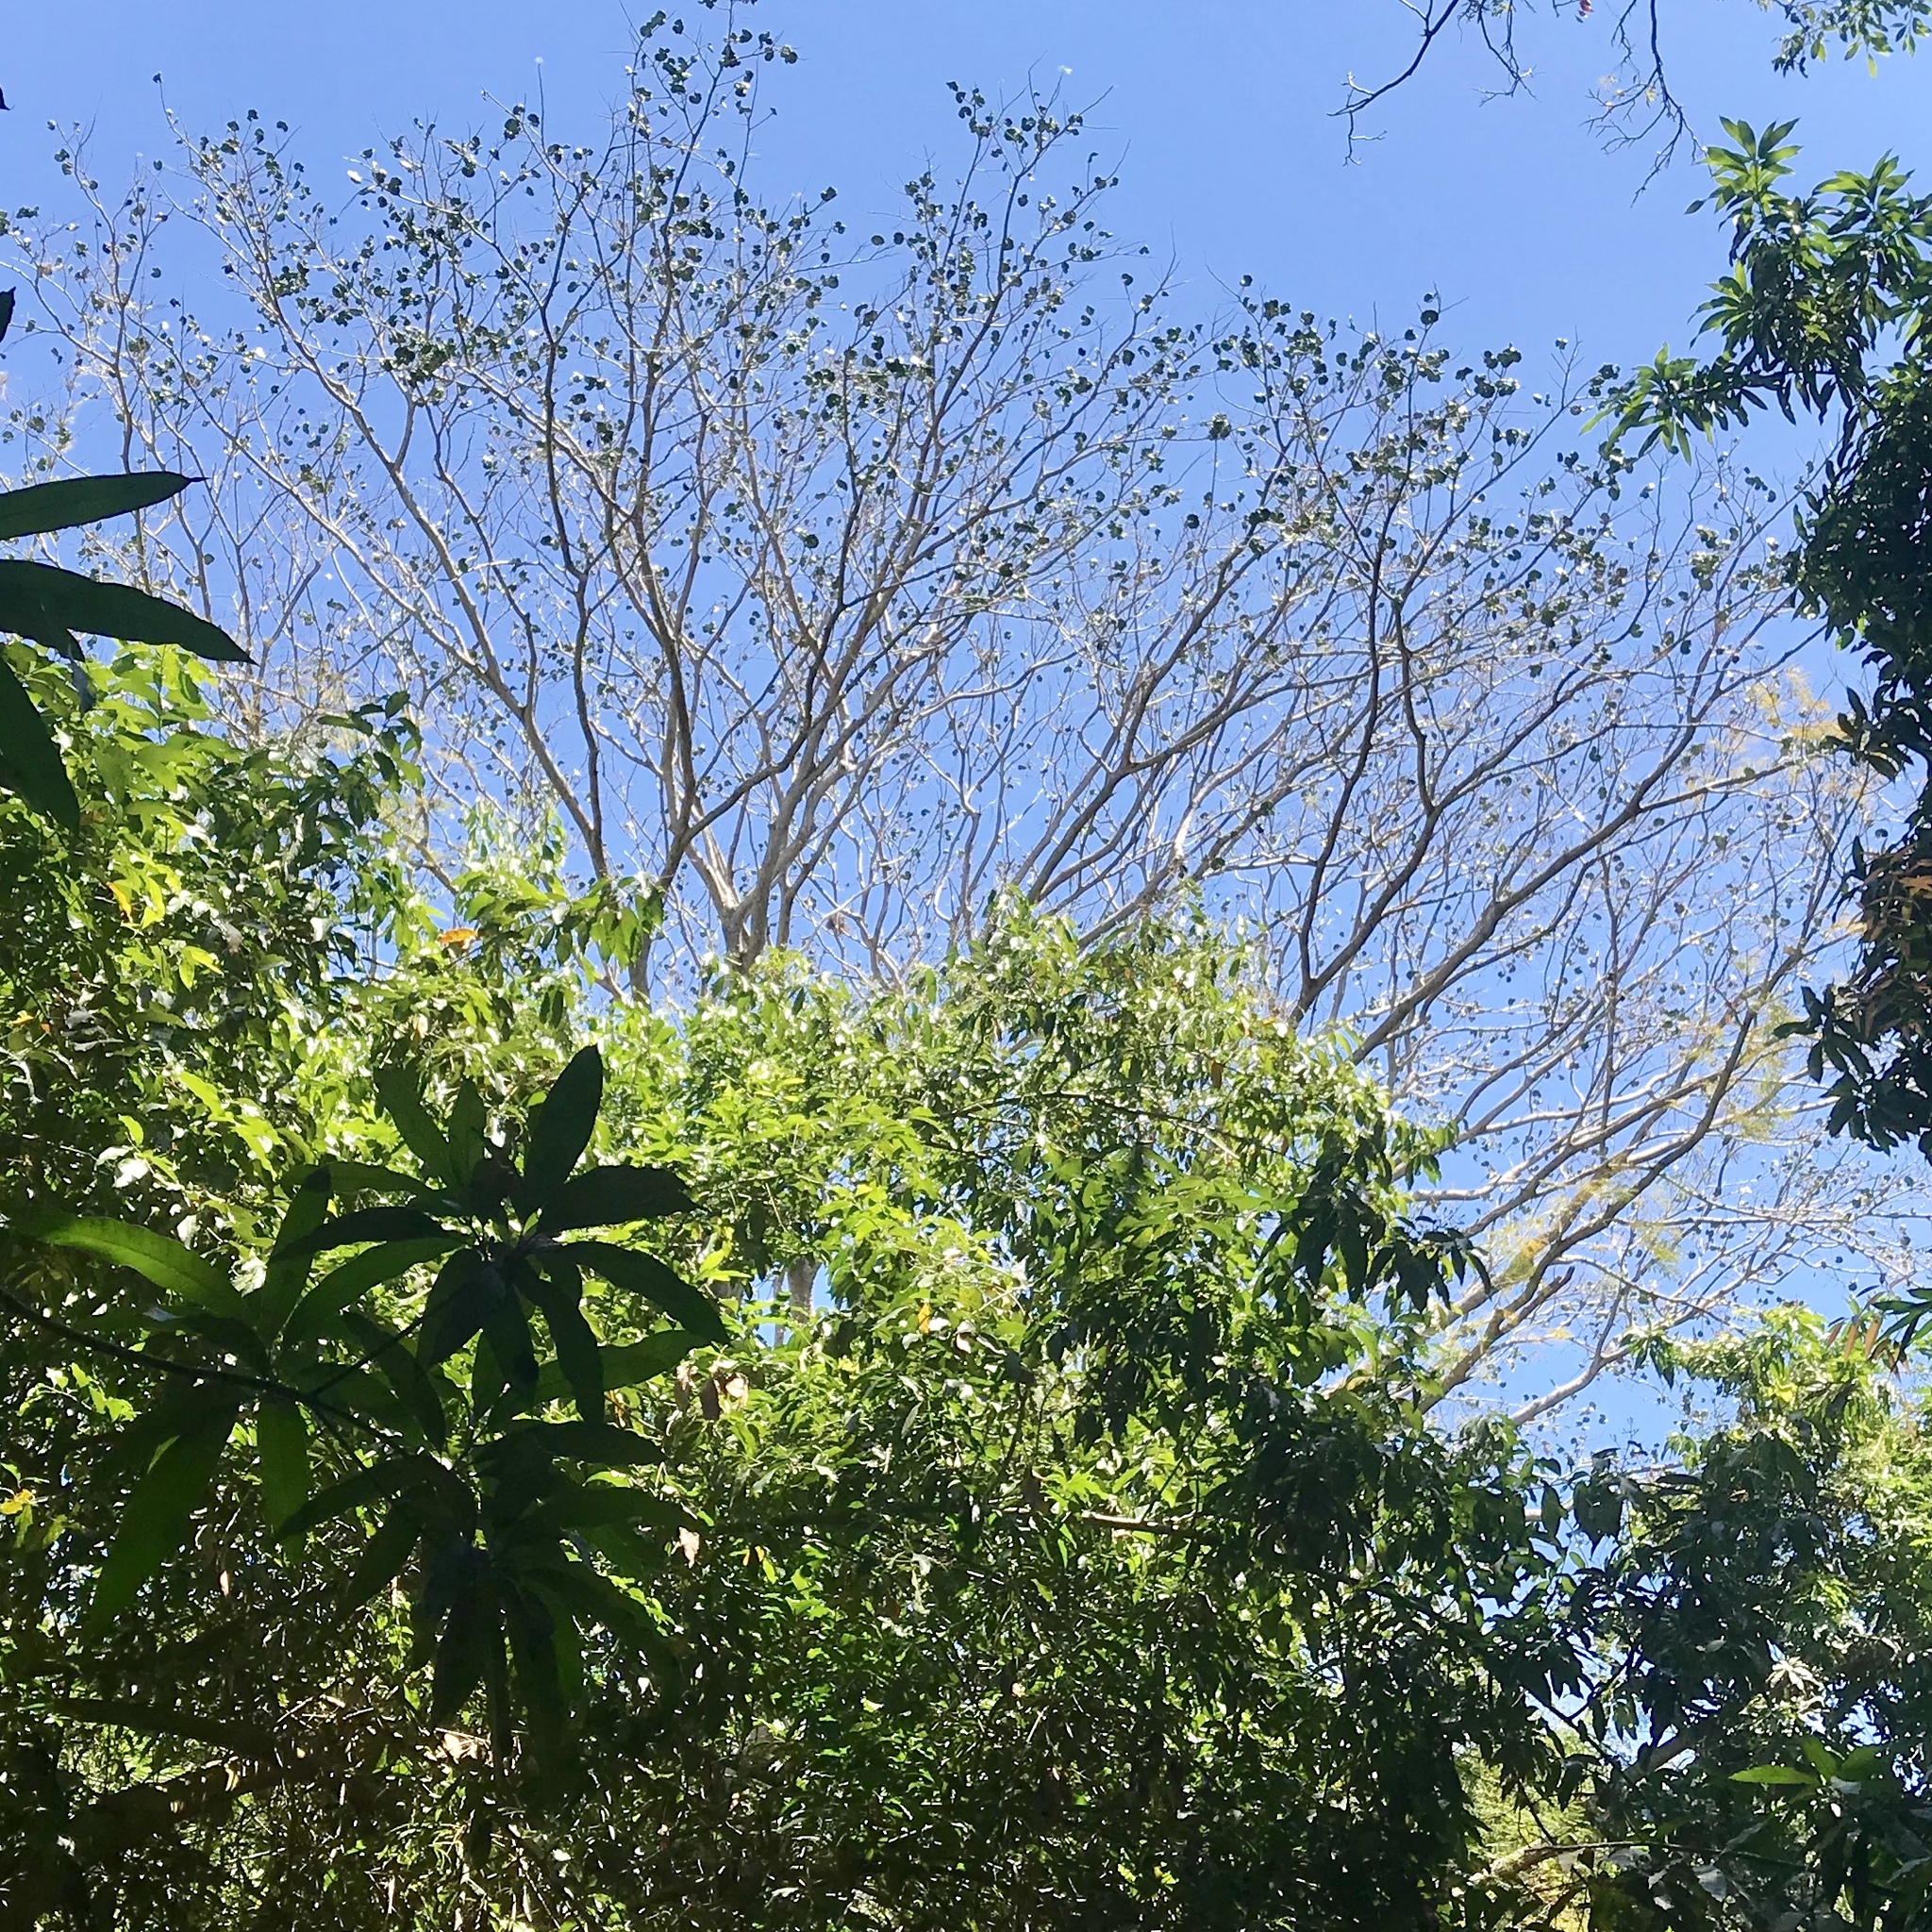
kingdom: Plantae
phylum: Tracheophyta
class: Magnoliopsida
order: Fabales
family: Fabaceae
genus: Enterolobium
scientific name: Enterolobium cyclocarpum
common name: Ear tree
